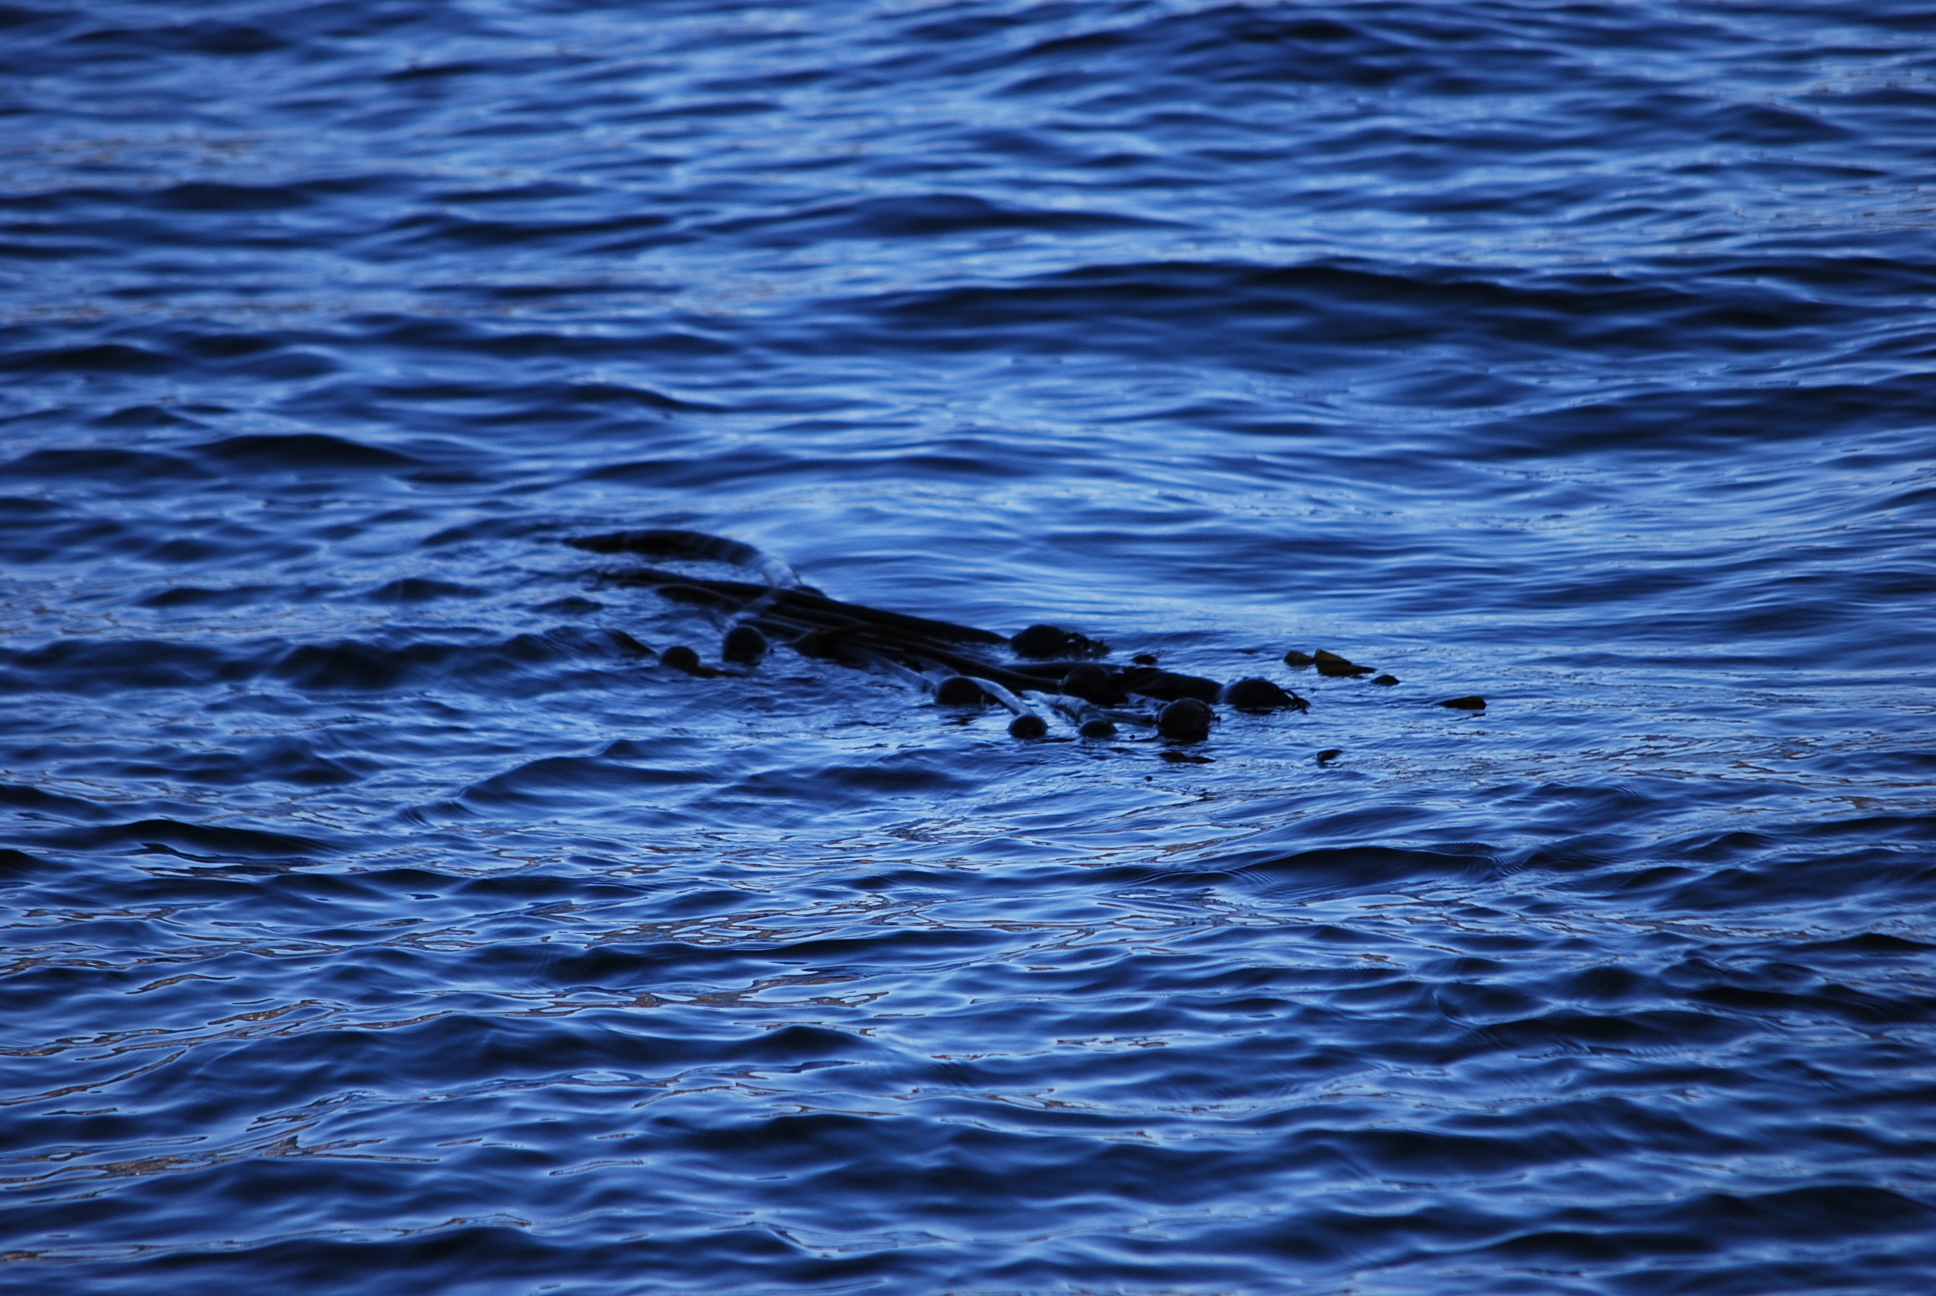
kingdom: Chromista
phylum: Ochrophyta
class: Phaeophyceae
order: Laminariales
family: Laminariaceae
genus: Nereocystis
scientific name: Nereocystis luetkeana
